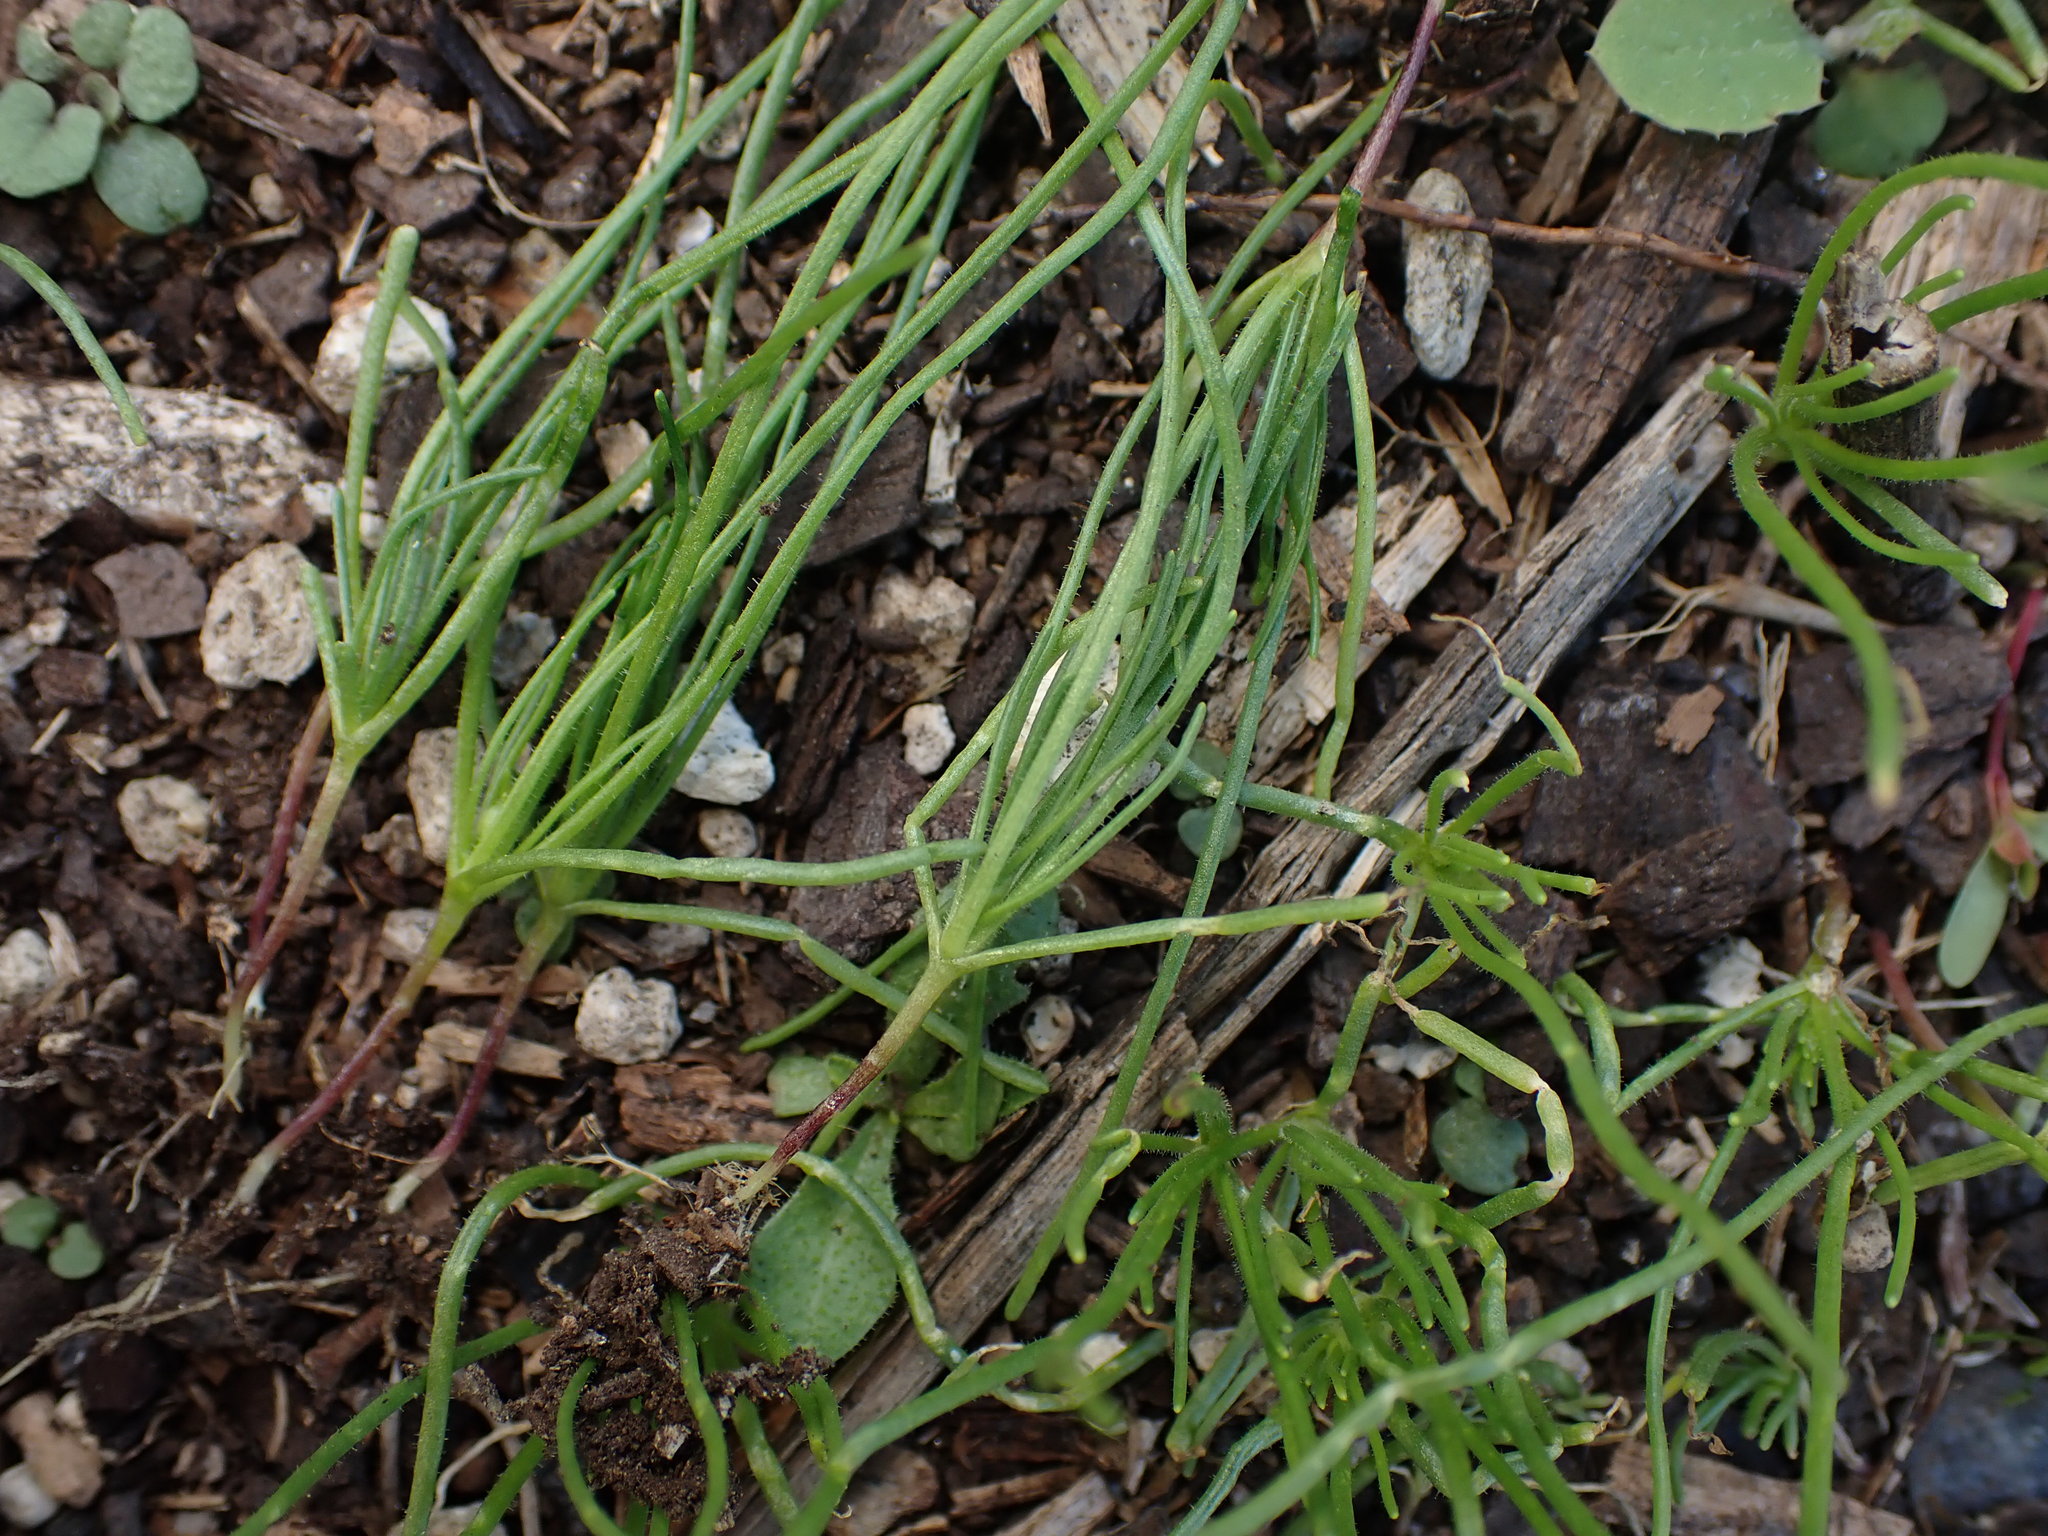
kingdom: Plantae
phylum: Tracheophyta
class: Magnoliopsida
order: Caryophyllales
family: Caryophyllaceae
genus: Spergula
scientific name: Spergula arvensis
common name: Corn spurrey
